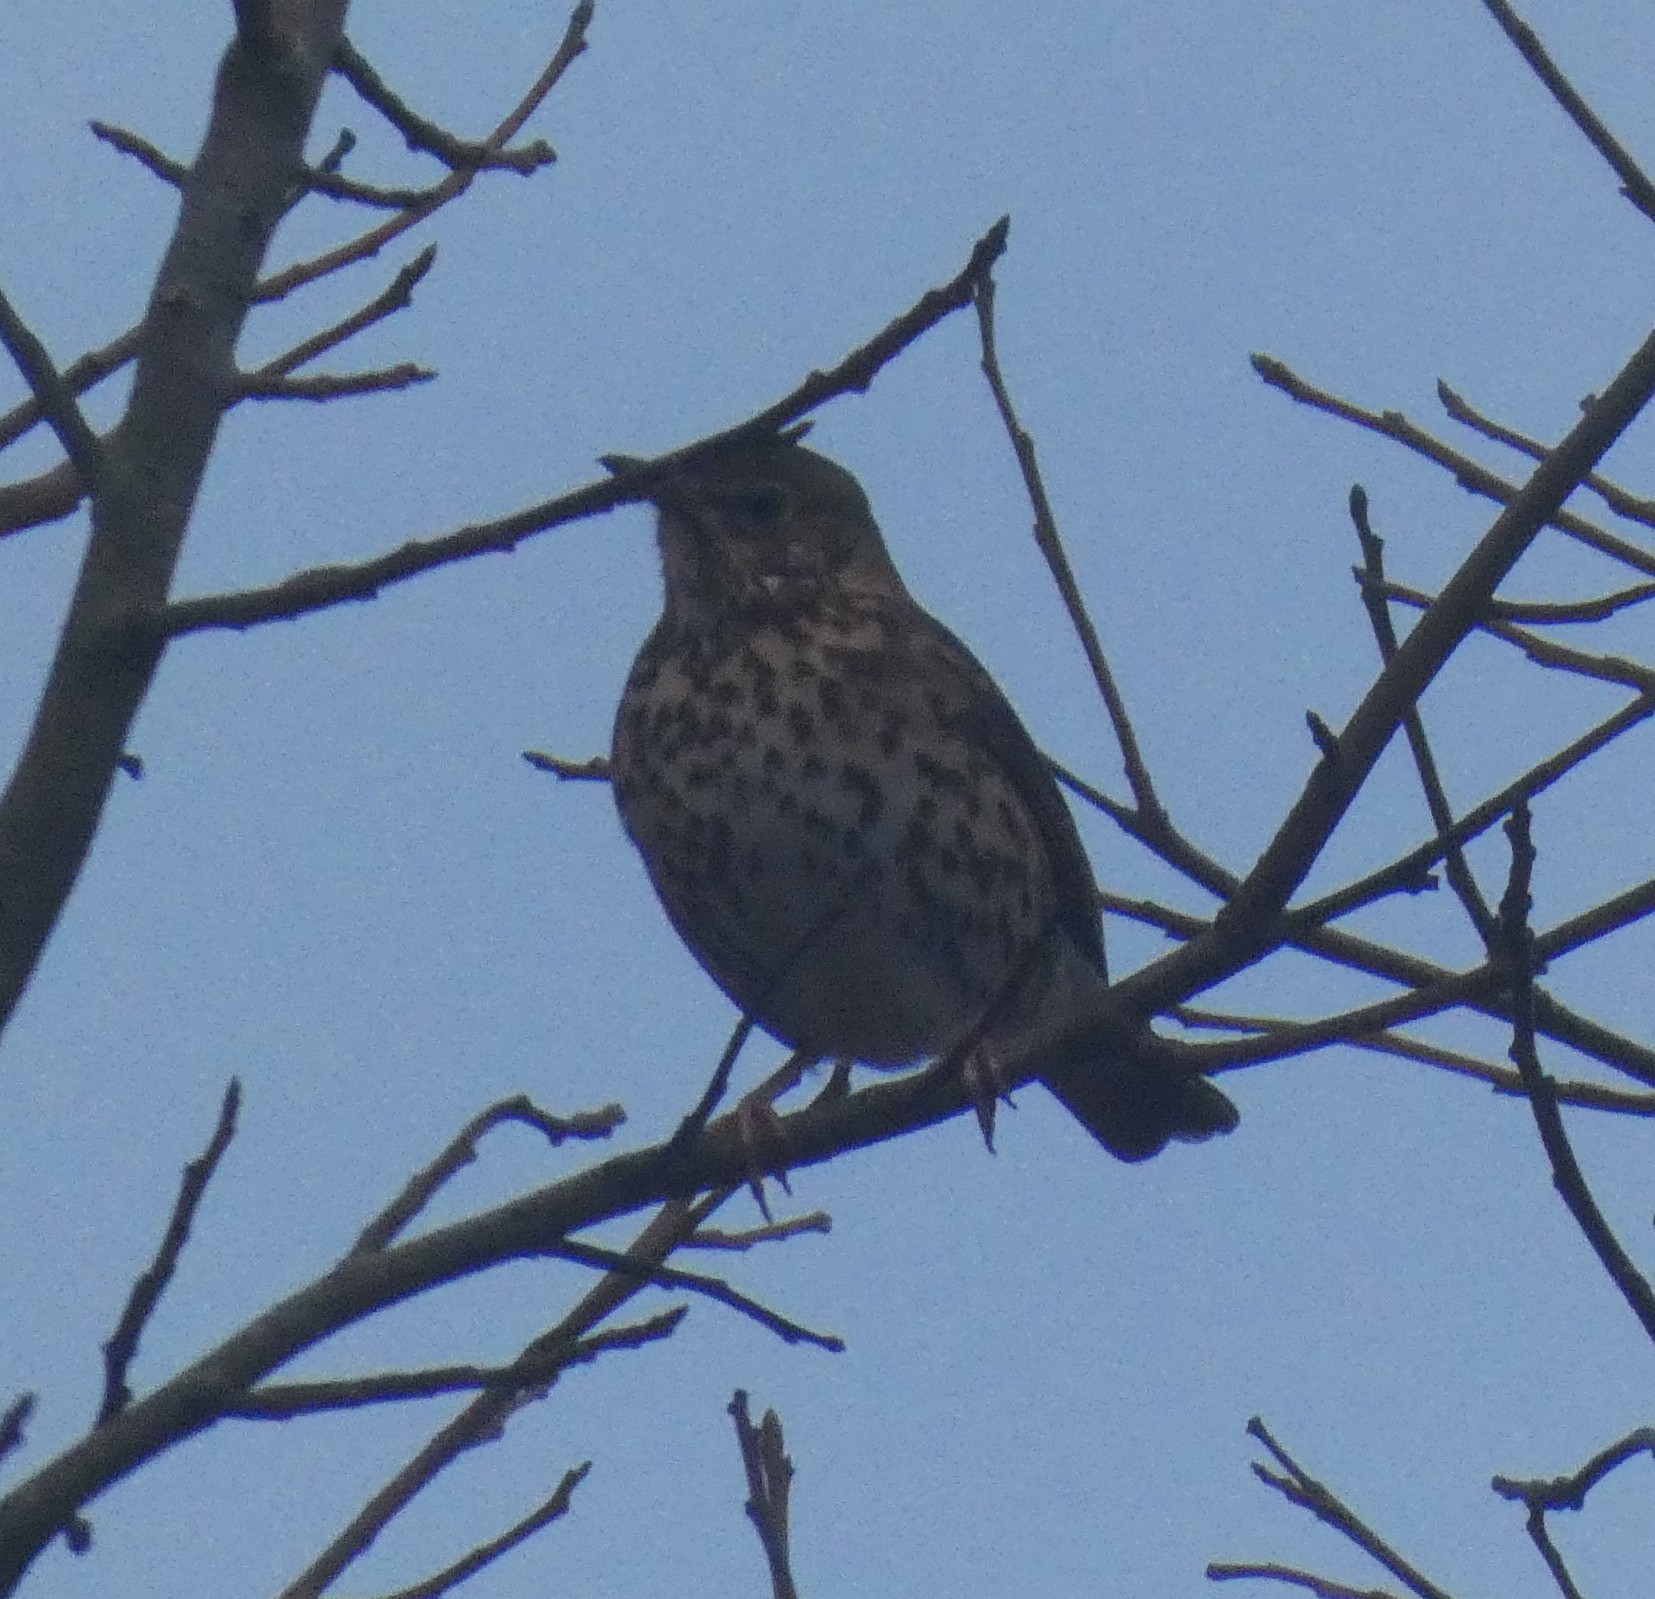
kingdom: Animalia
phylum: Chordata
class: Aves
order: Passeriformes
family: Turdidae
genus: Turdus
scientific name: Turdus philomelos
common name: Song thrush
